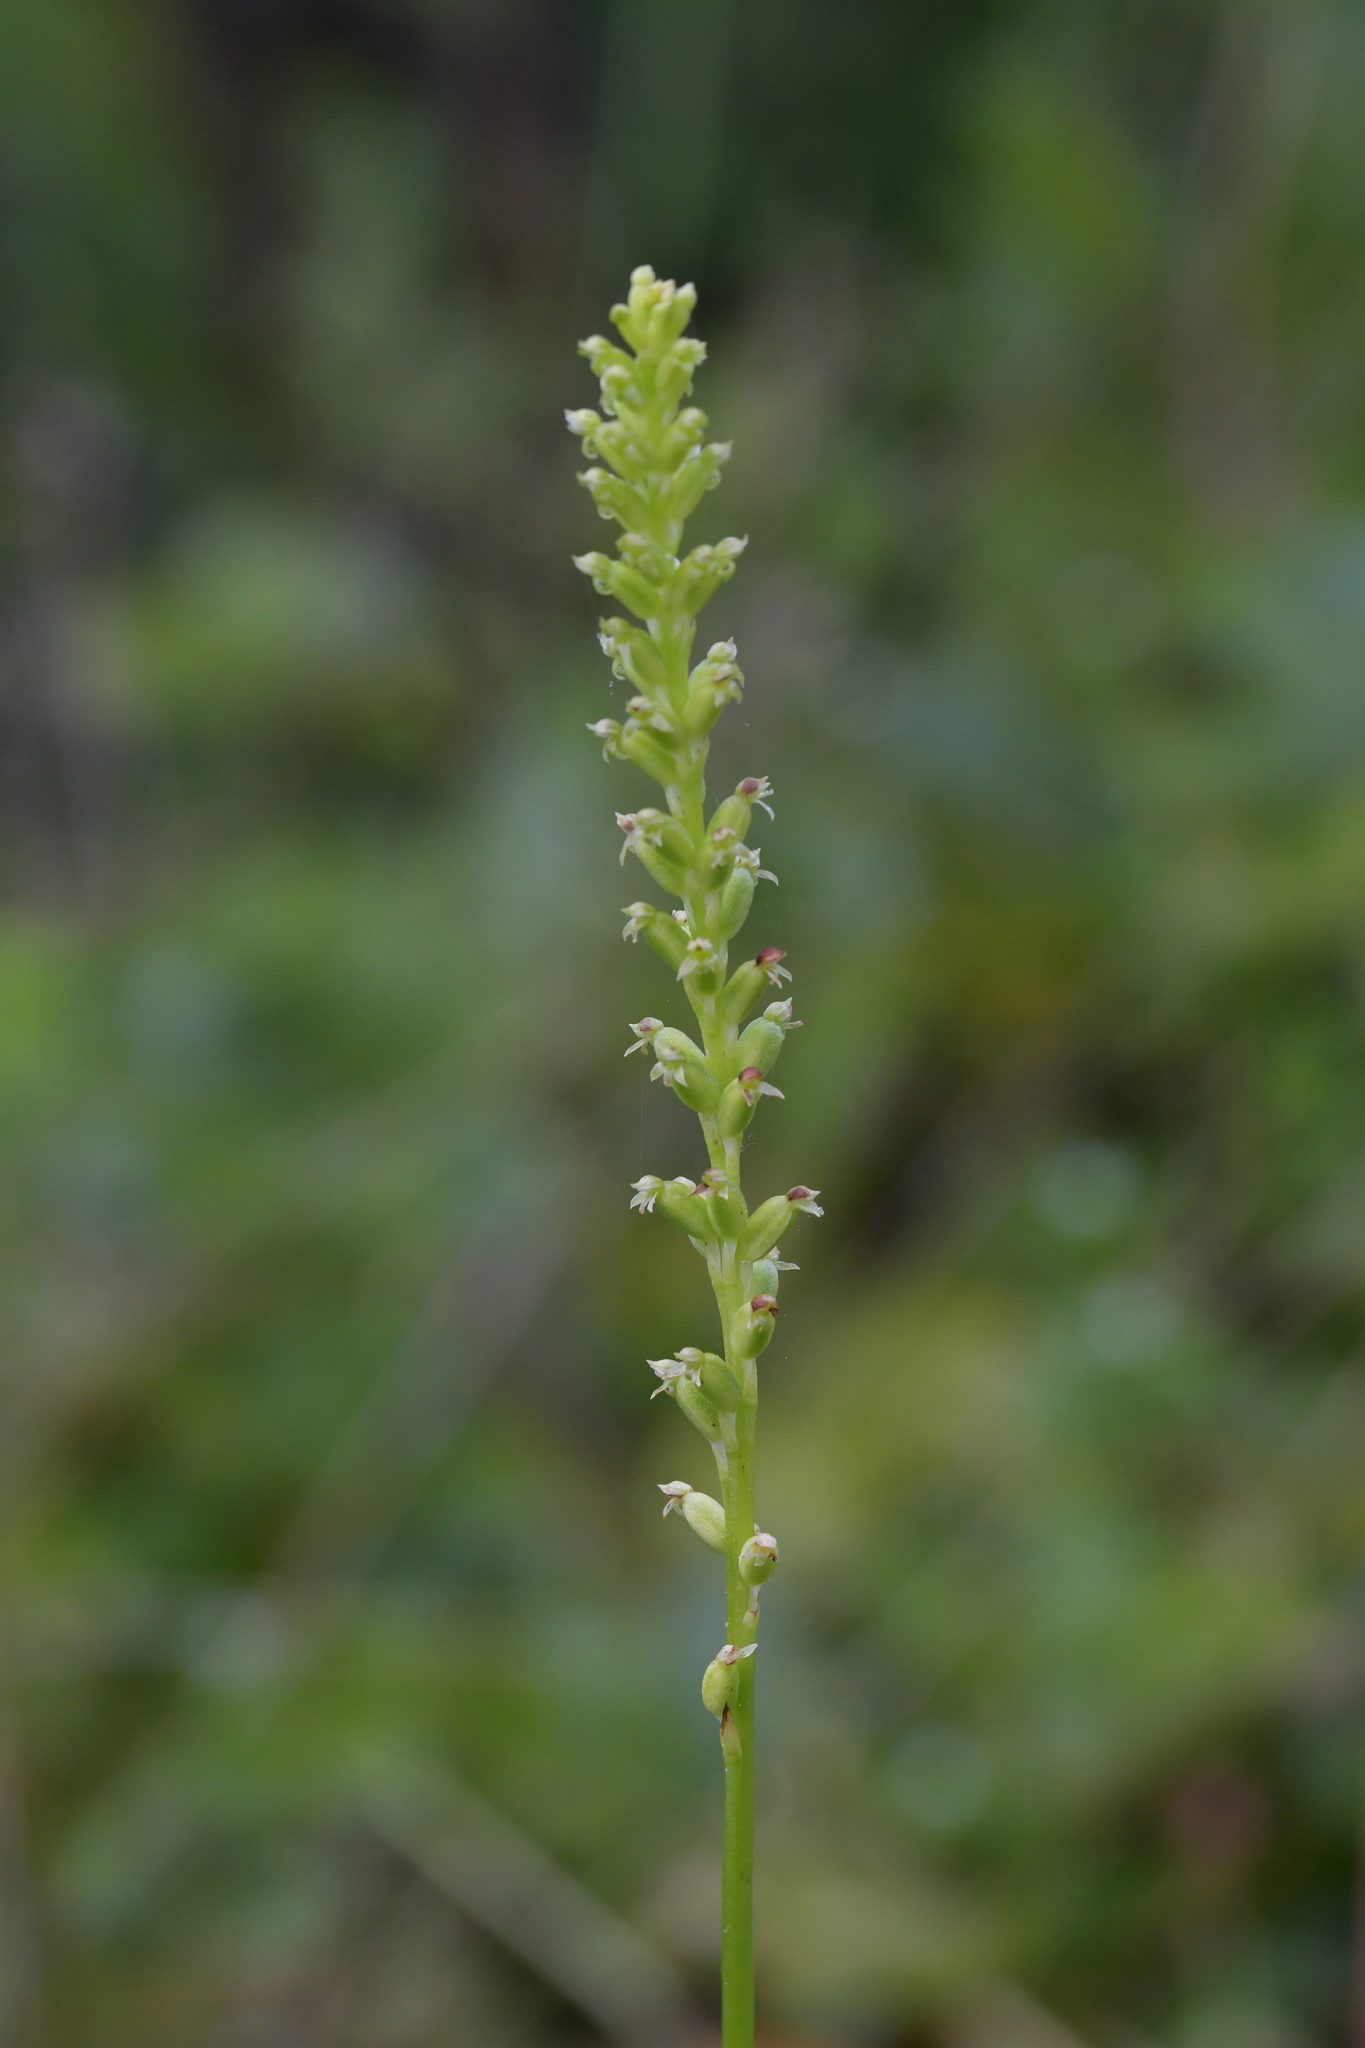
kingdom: Plantae
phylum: Tracheophyta
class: Liliopsida
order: Asparagales
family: Orchidaceae
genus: Microtis
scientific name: Microtis unifolia
